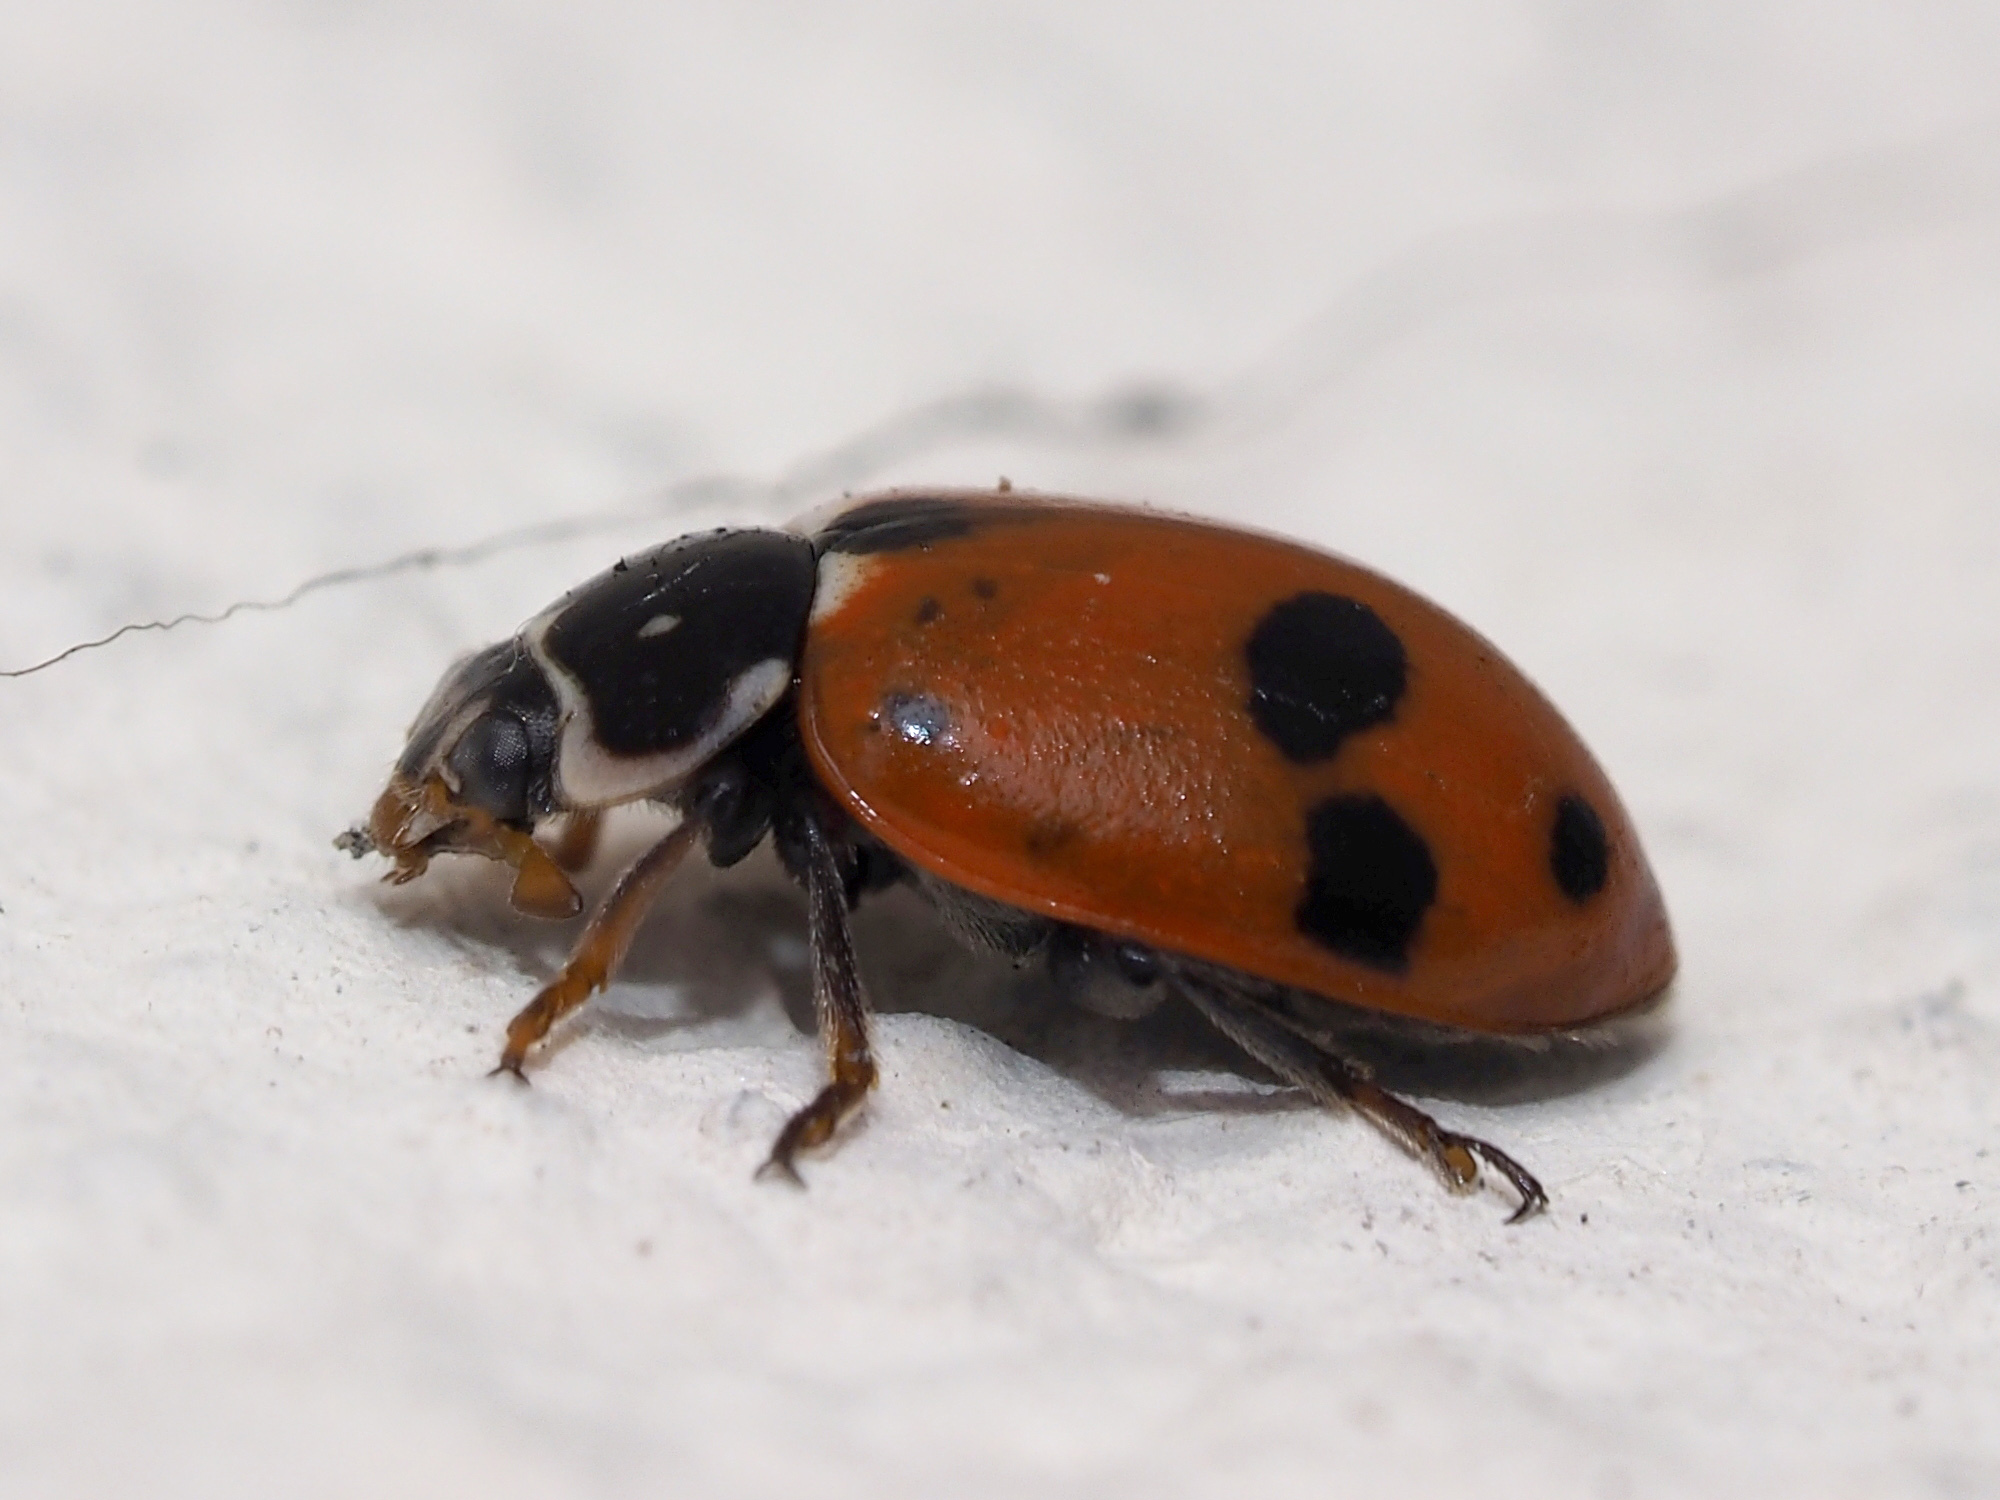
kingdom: Animalia
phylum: Arthropoda
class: Insecta
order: Coleoptera
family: Coccinellidae
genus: Hippodamia
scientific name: Hippodamia variegata
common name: Ladybird beetle
